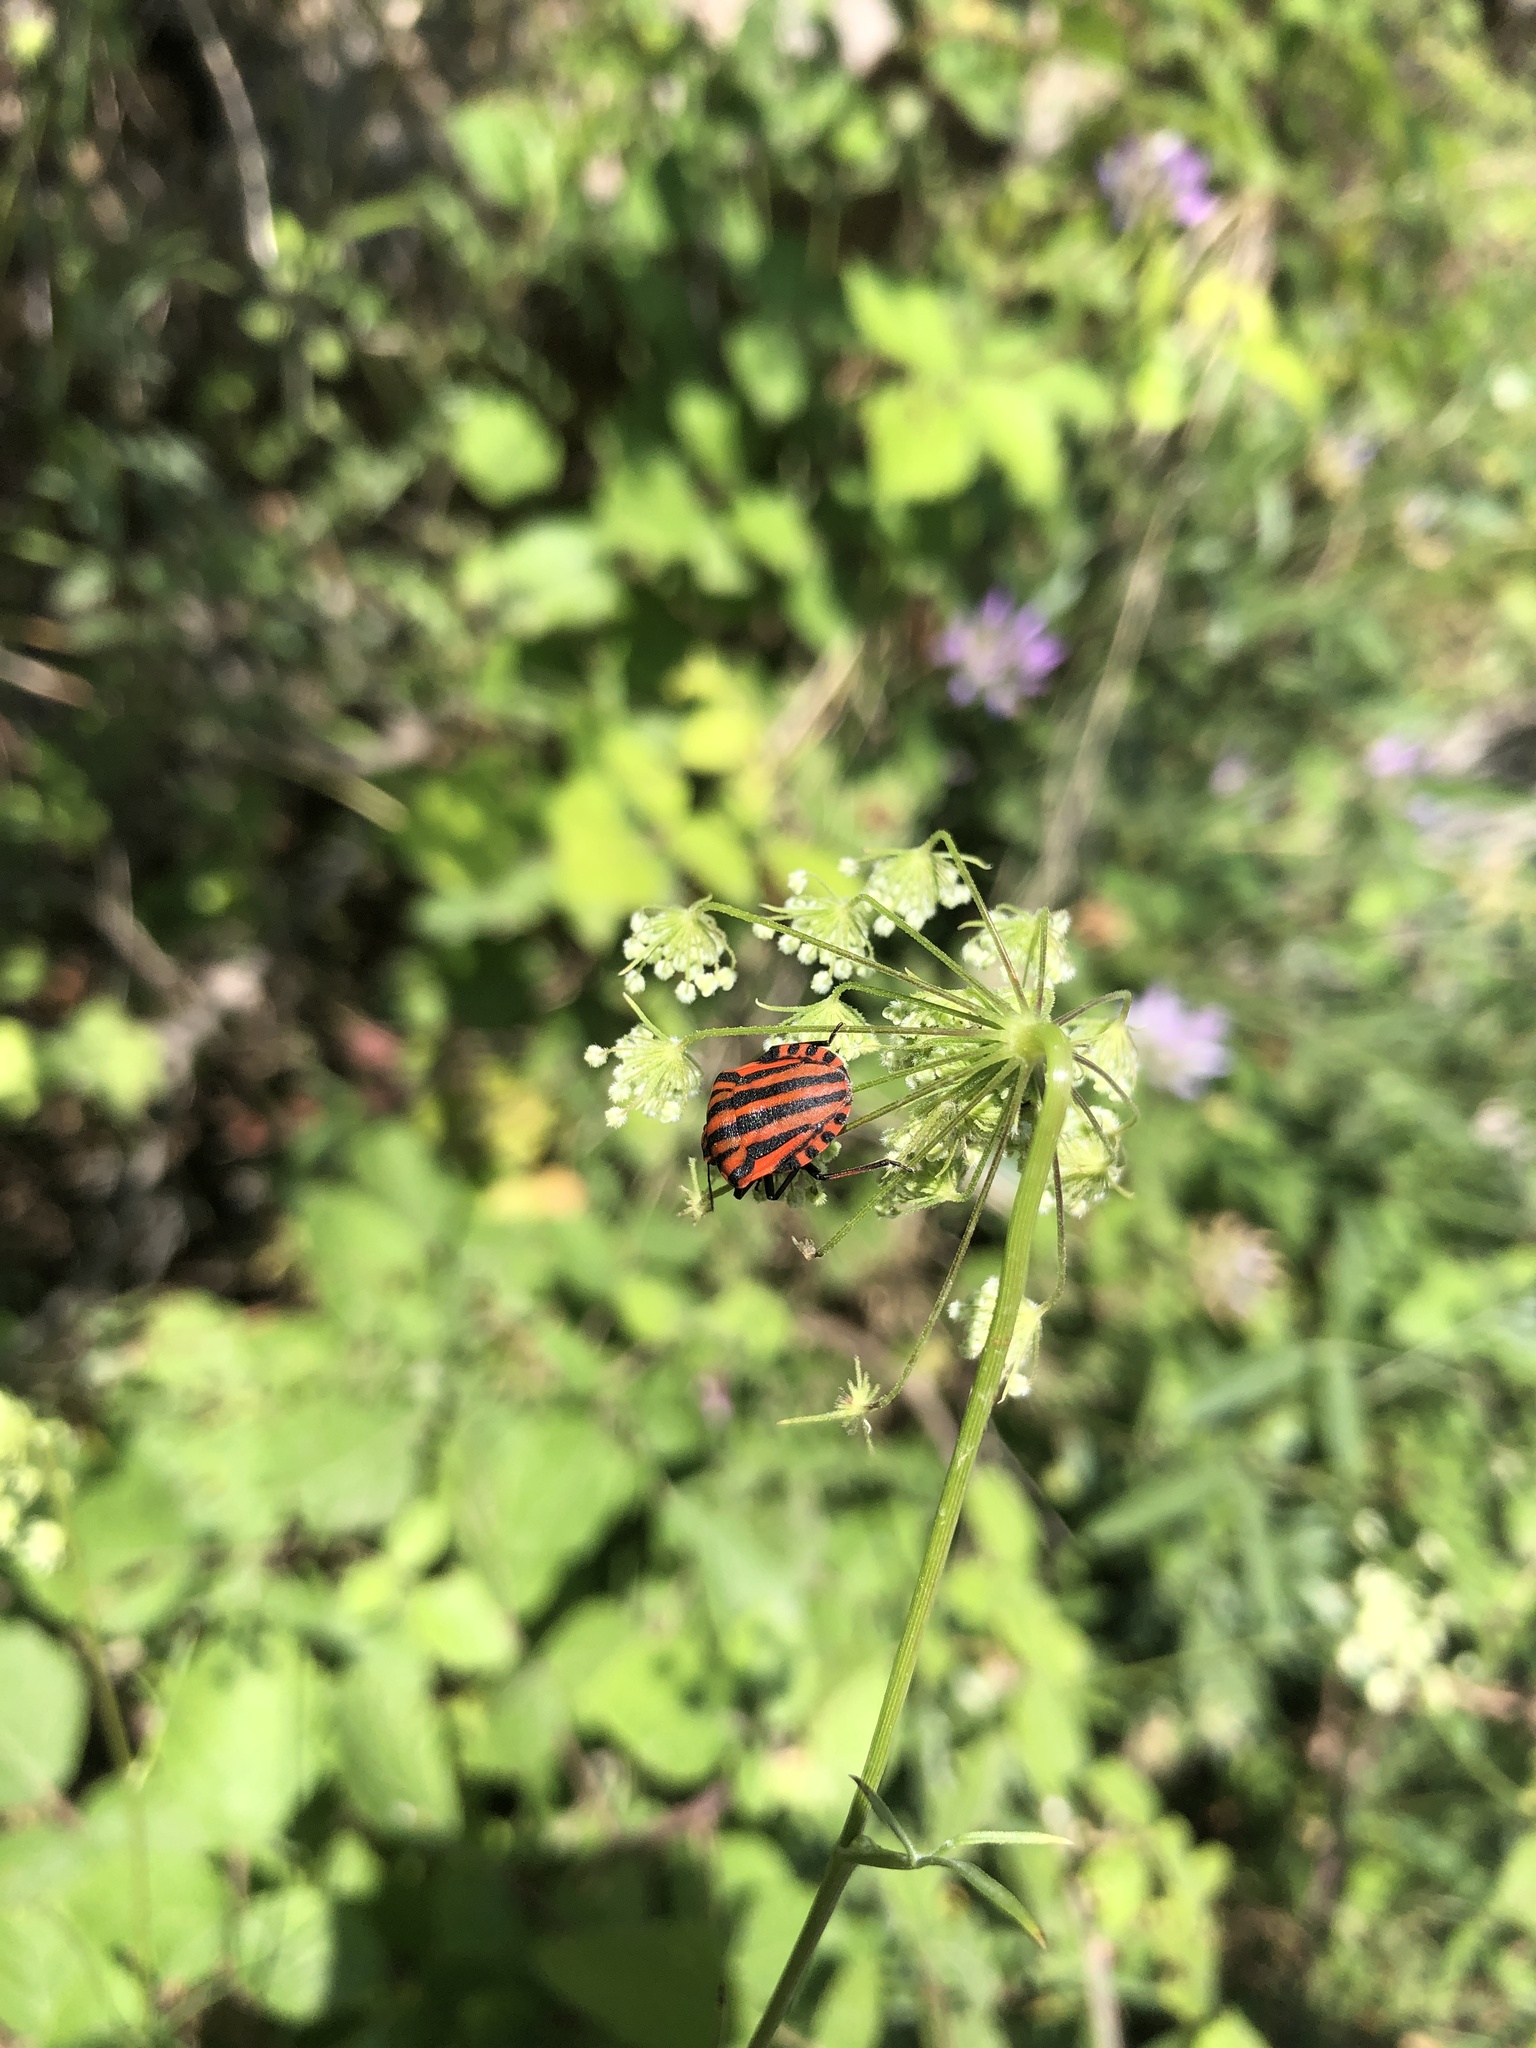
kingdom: Animalia
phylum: Arthropoda
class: Insecta
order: Hemiptera
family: Pentatomidae
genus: Graphosoma
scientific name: Graphosoma italicum
